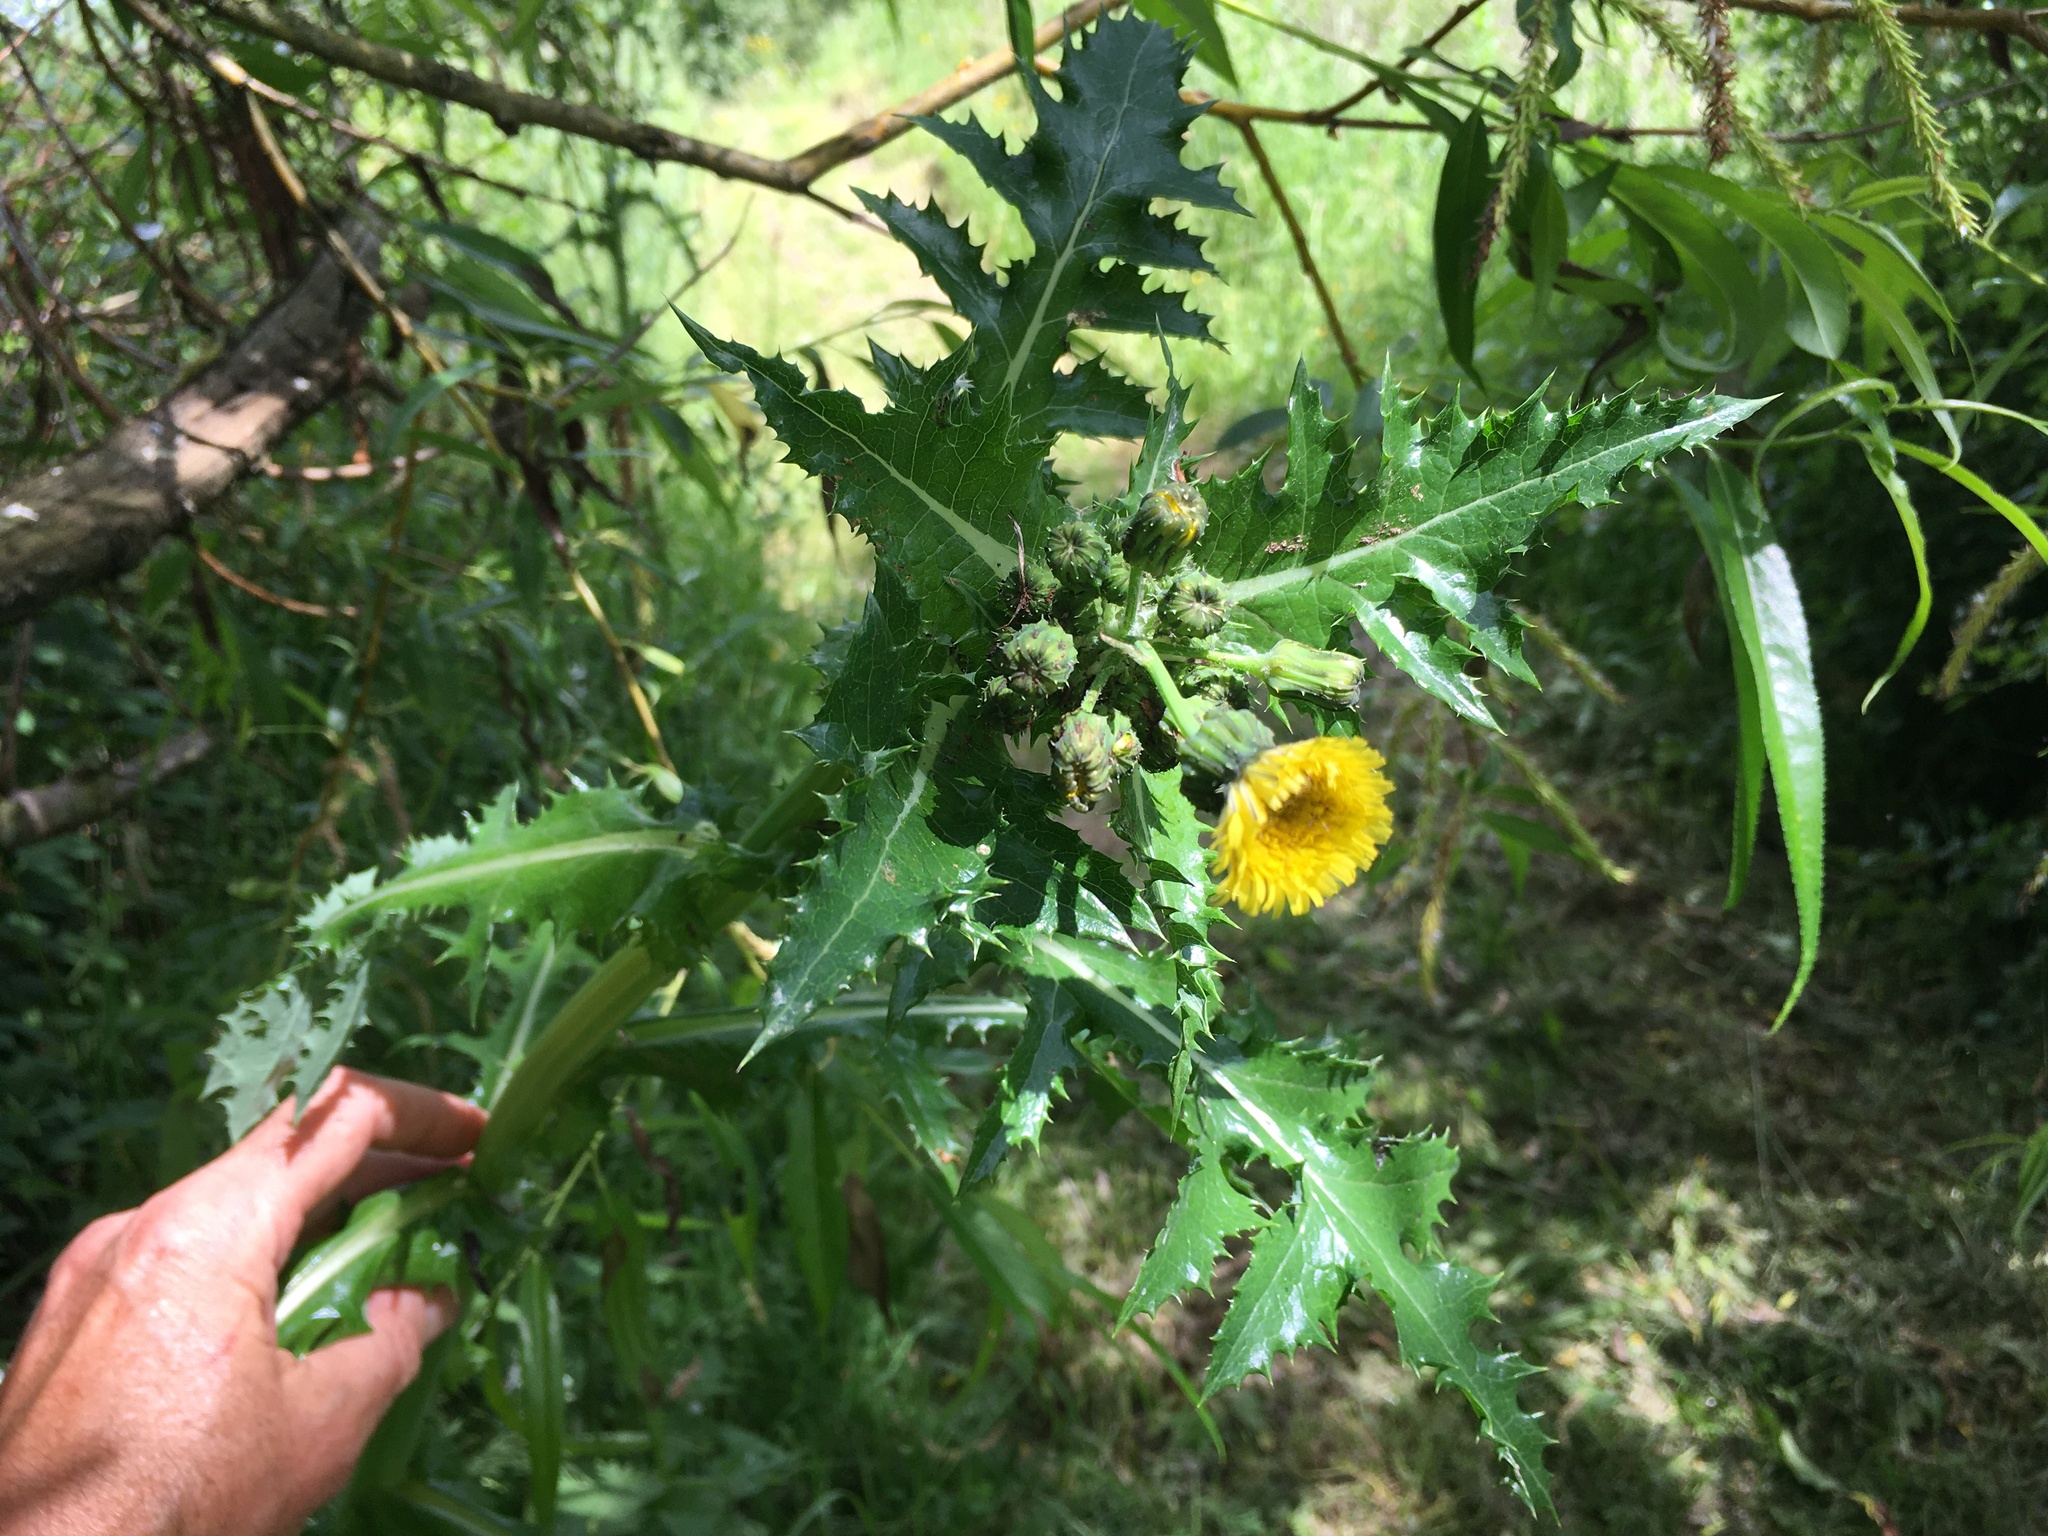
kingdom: Plantae
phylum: Tracheophyta
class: Magnoliopsida
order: Asterales
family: Asteraceae
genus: Sonchus
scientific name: Sonchus asper
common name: Prickly sow-thistle
